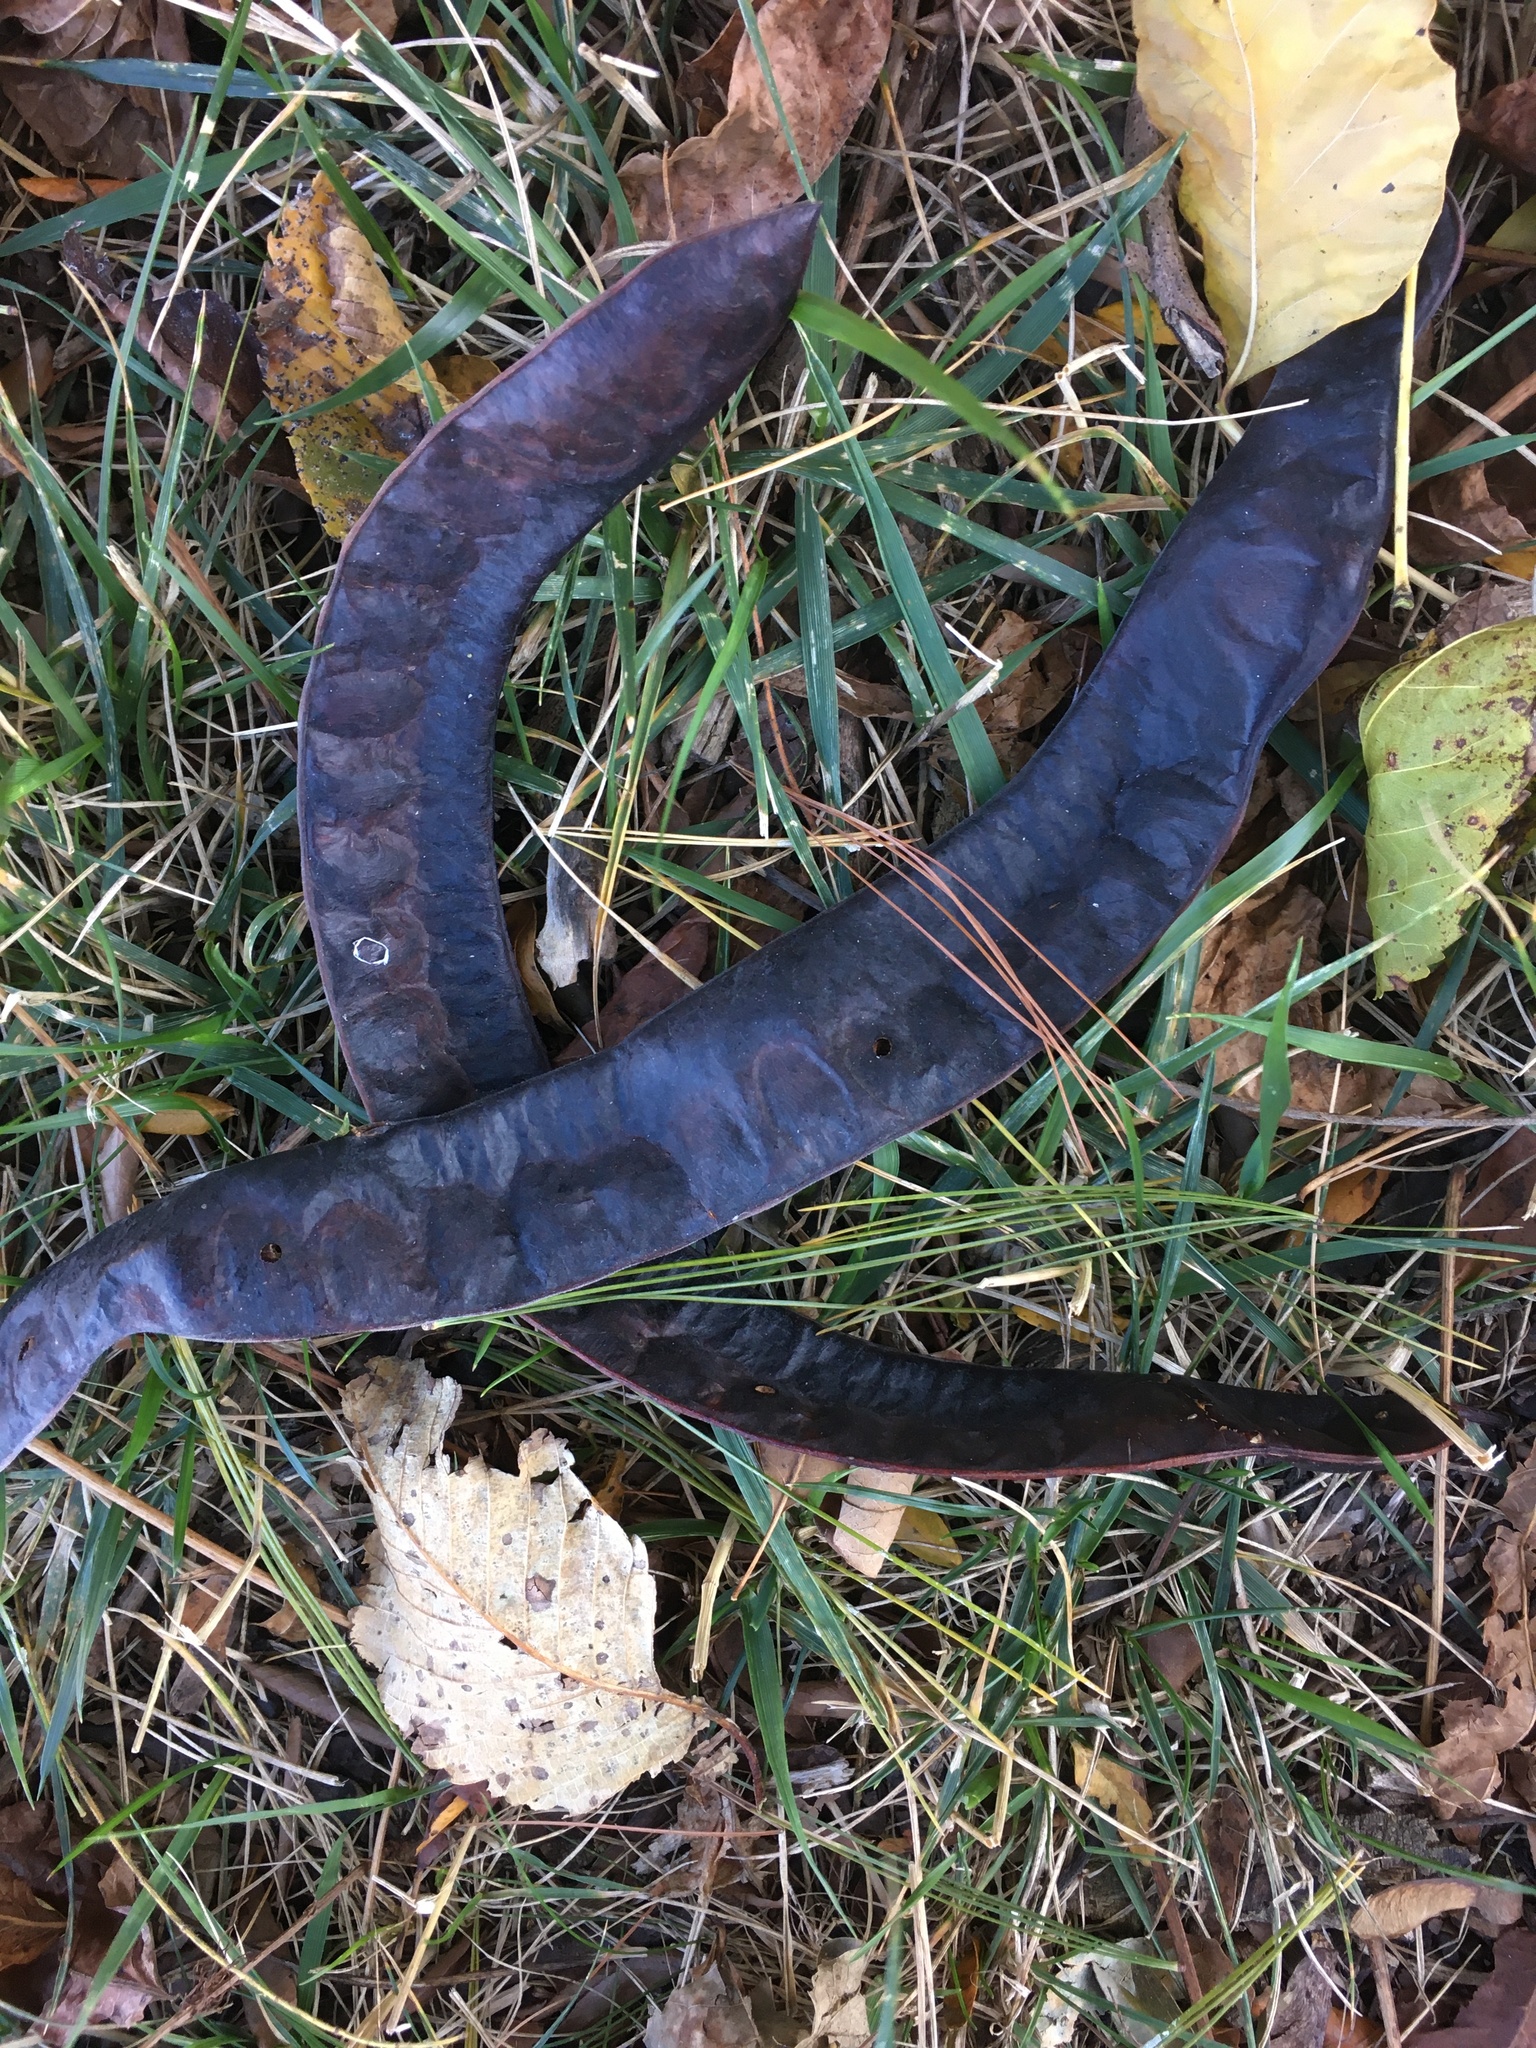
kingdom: Plantae
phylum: Tracheophyta
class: Magnoliopsida
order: Fabales
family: Fabaceae
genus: Gleditsia
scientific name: Gleditsia triacanthos
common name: Common honeylocust
